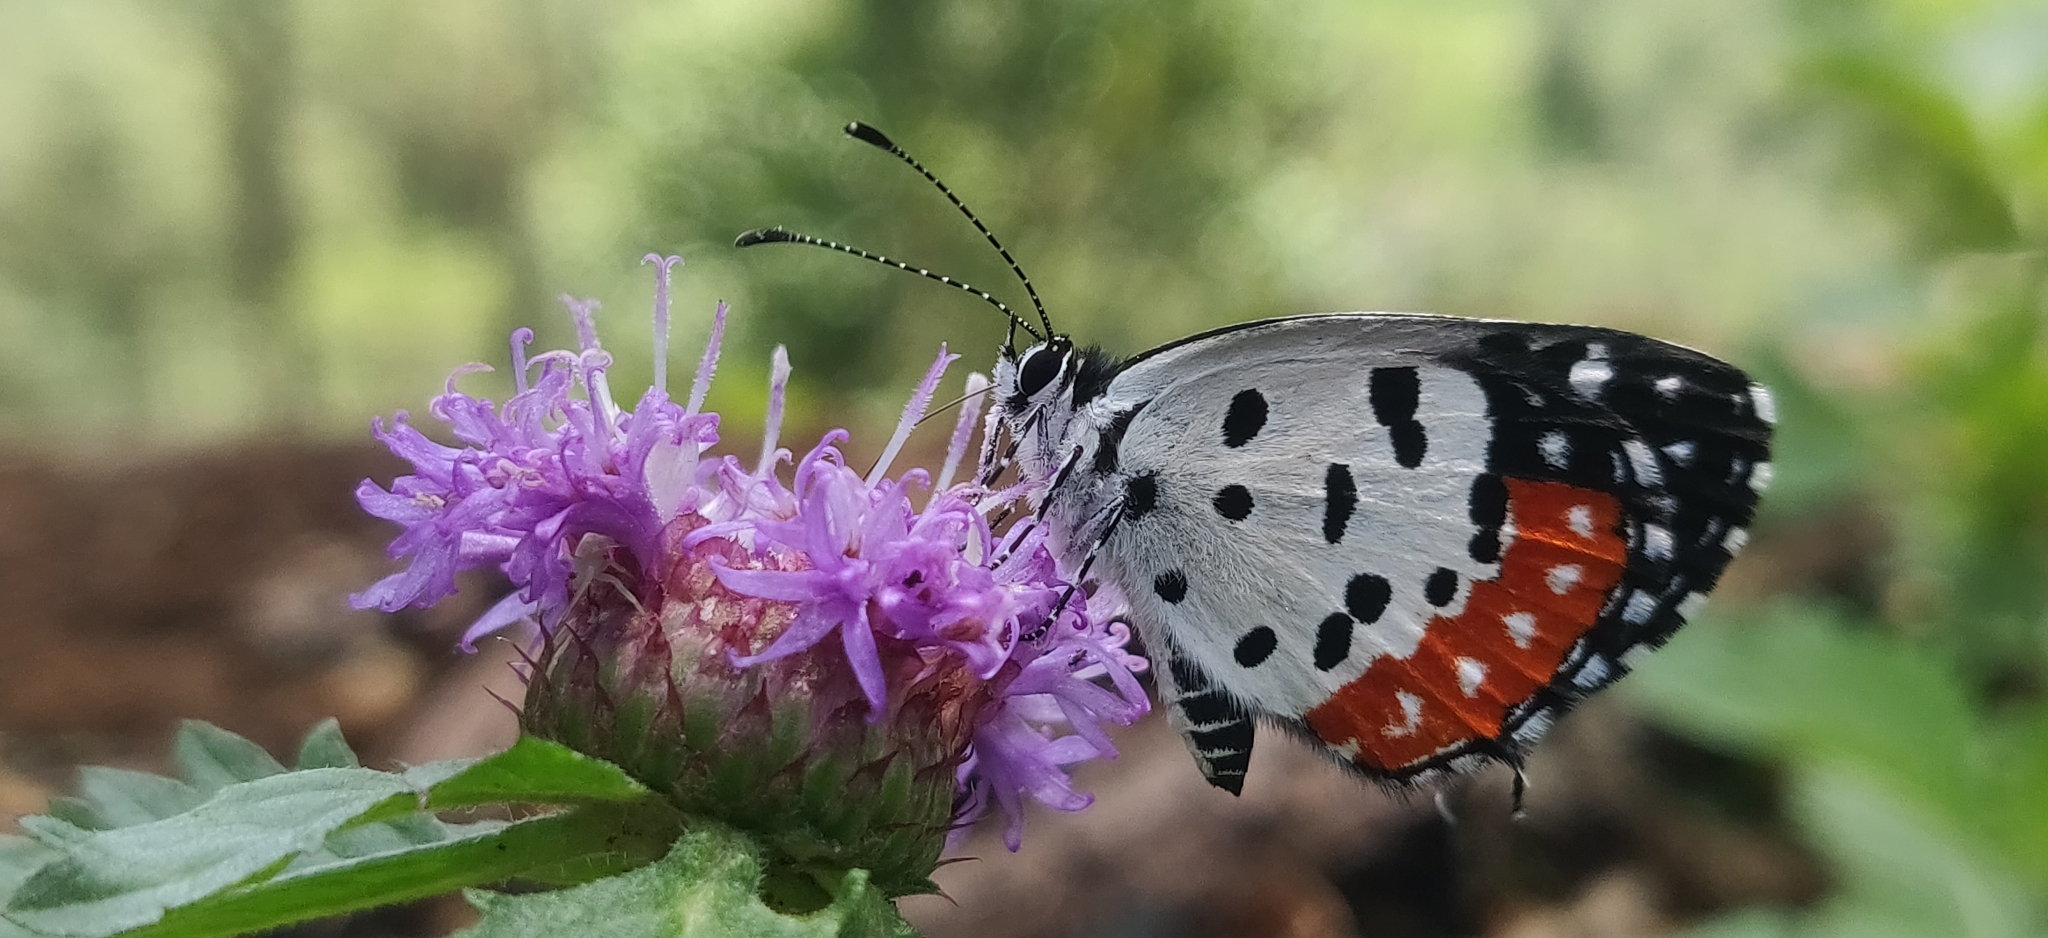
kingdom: Animalia
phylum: Arthropoda
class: Insecta
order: Lepidoptera
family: Lycaenidae
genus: Talicada
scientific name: Talicada nyseus
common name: Red pierrot
